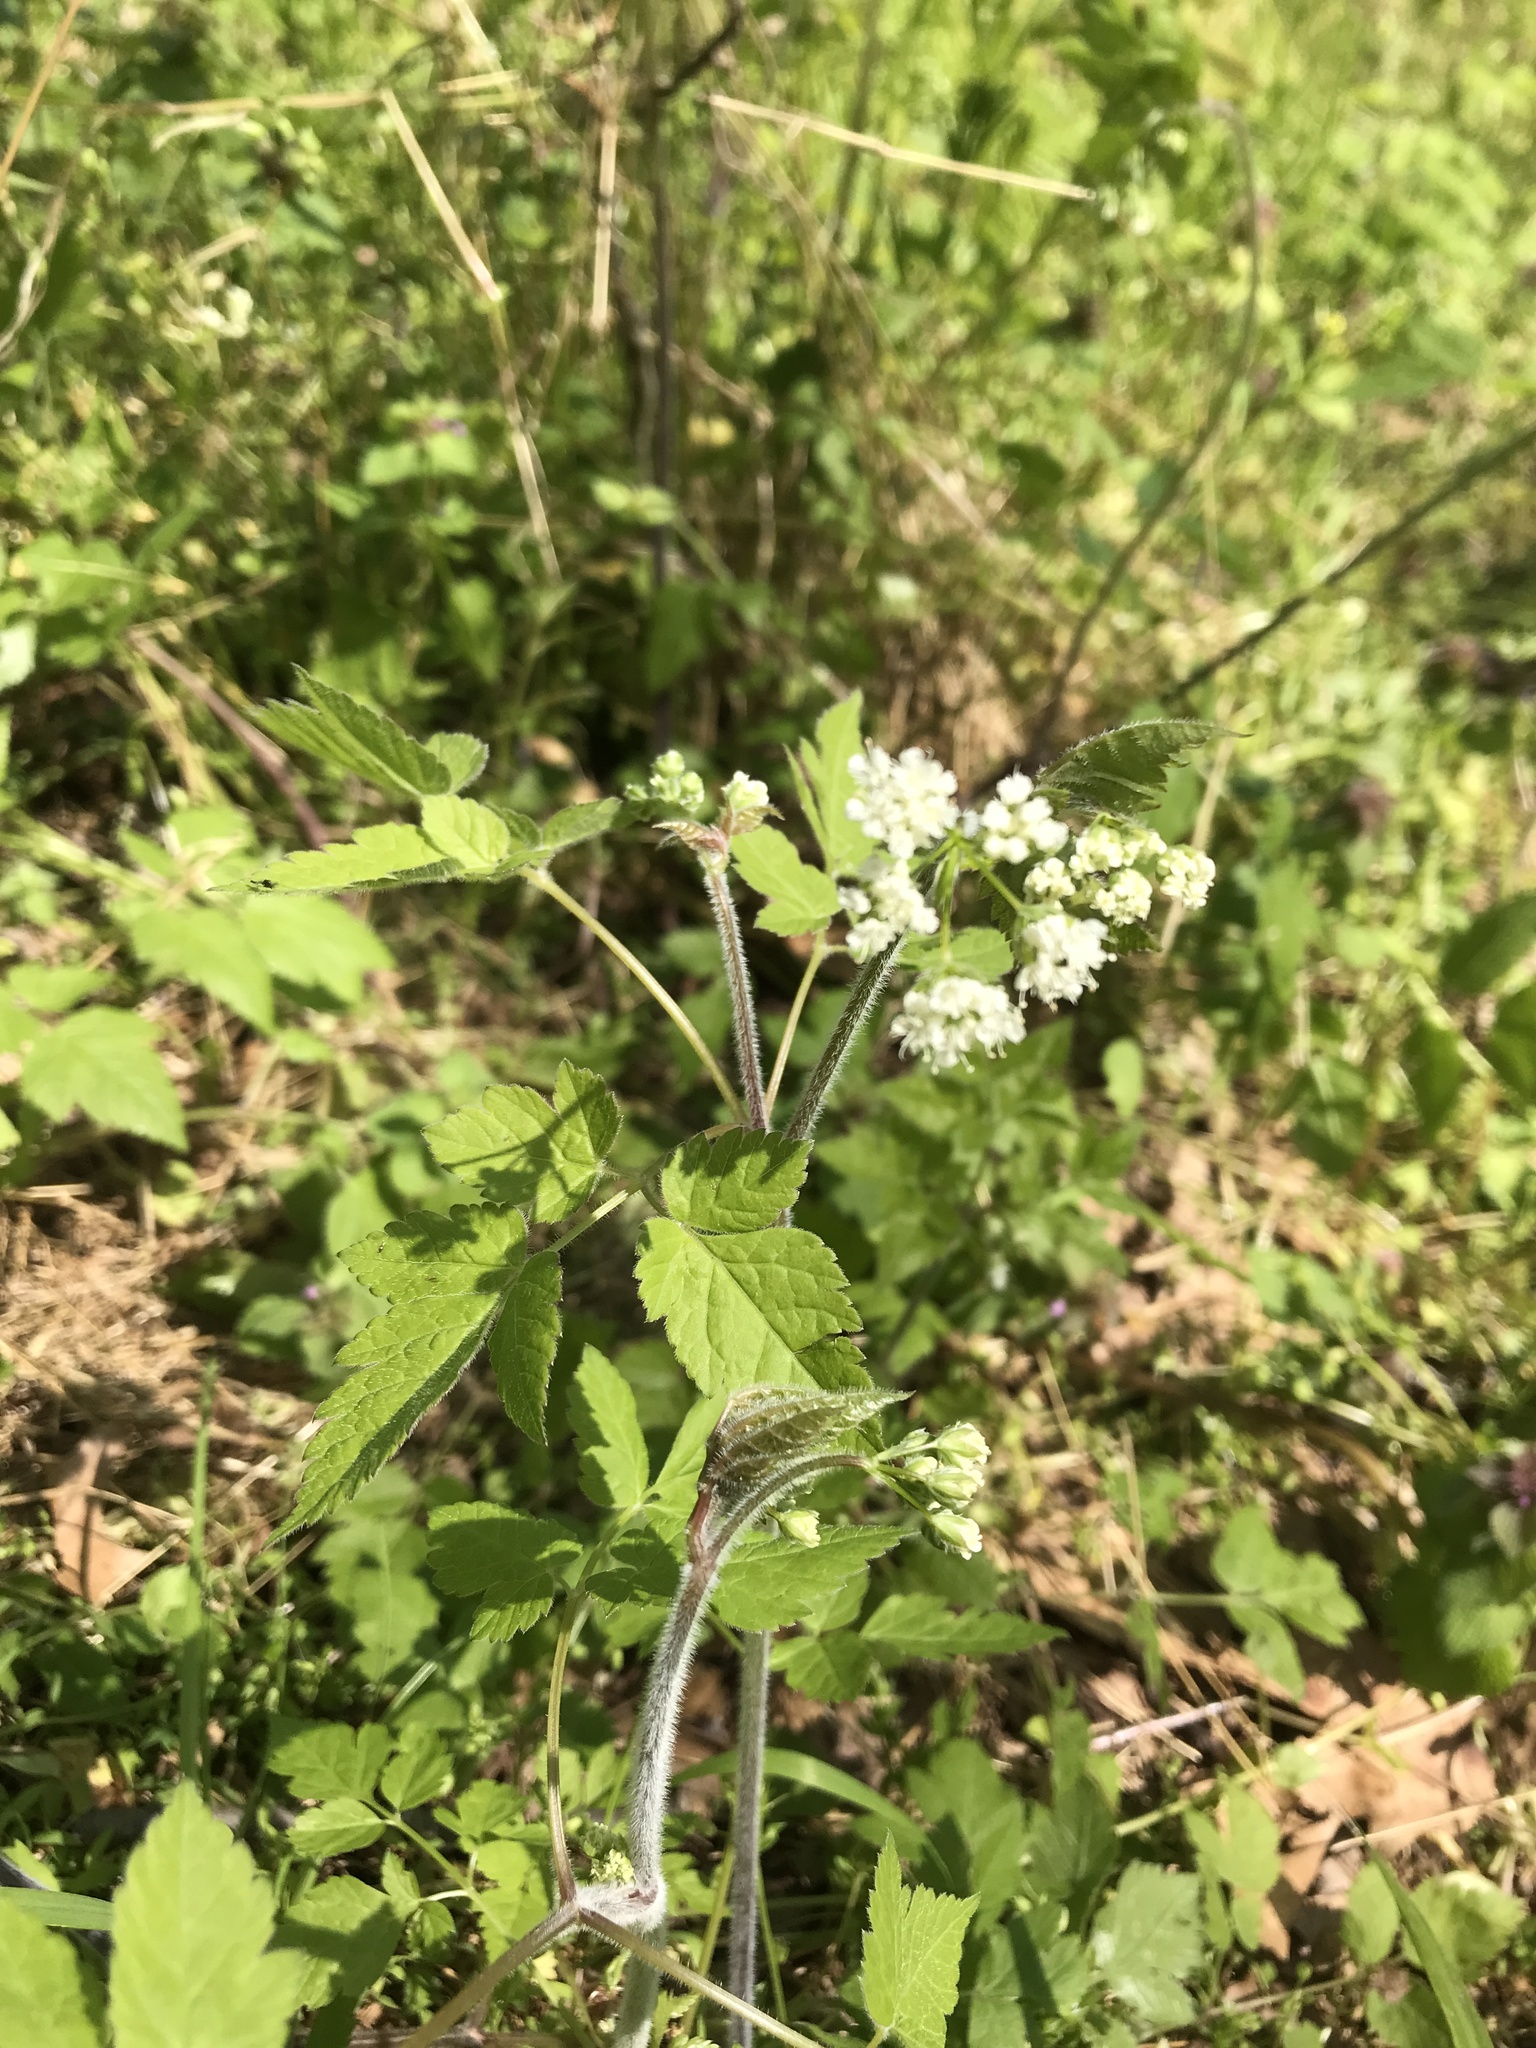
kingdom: Plantae
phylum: Tracheophyta
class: Magnoliopsida
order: Apiales
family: Apiaceae
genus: Osmorhiza
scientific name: Osmorhiza longistylis
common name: Smooth sweet cicely
